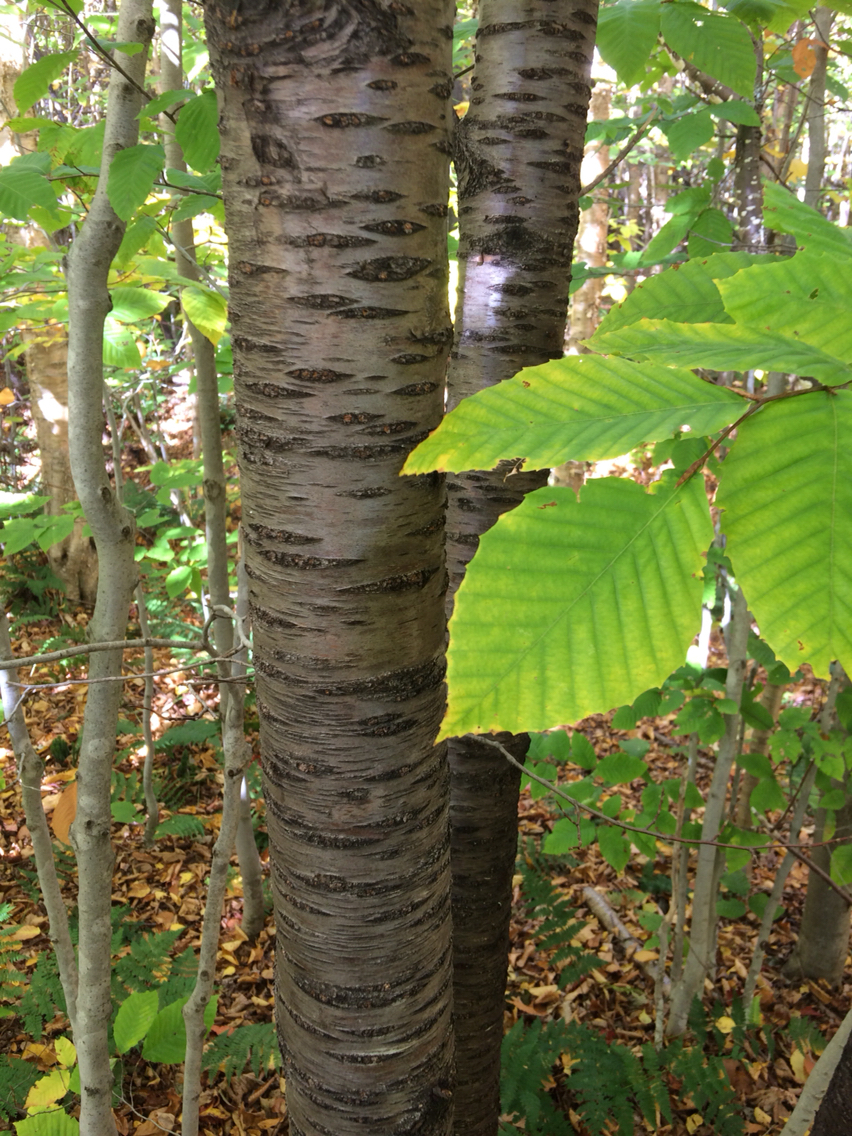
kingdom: Plantae
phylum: Tracheophyta
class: Magnoliopsida
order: Rosales
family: Rosaceae
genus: Prunus
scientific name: Prunus pensylvanica
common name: Pin cherry
